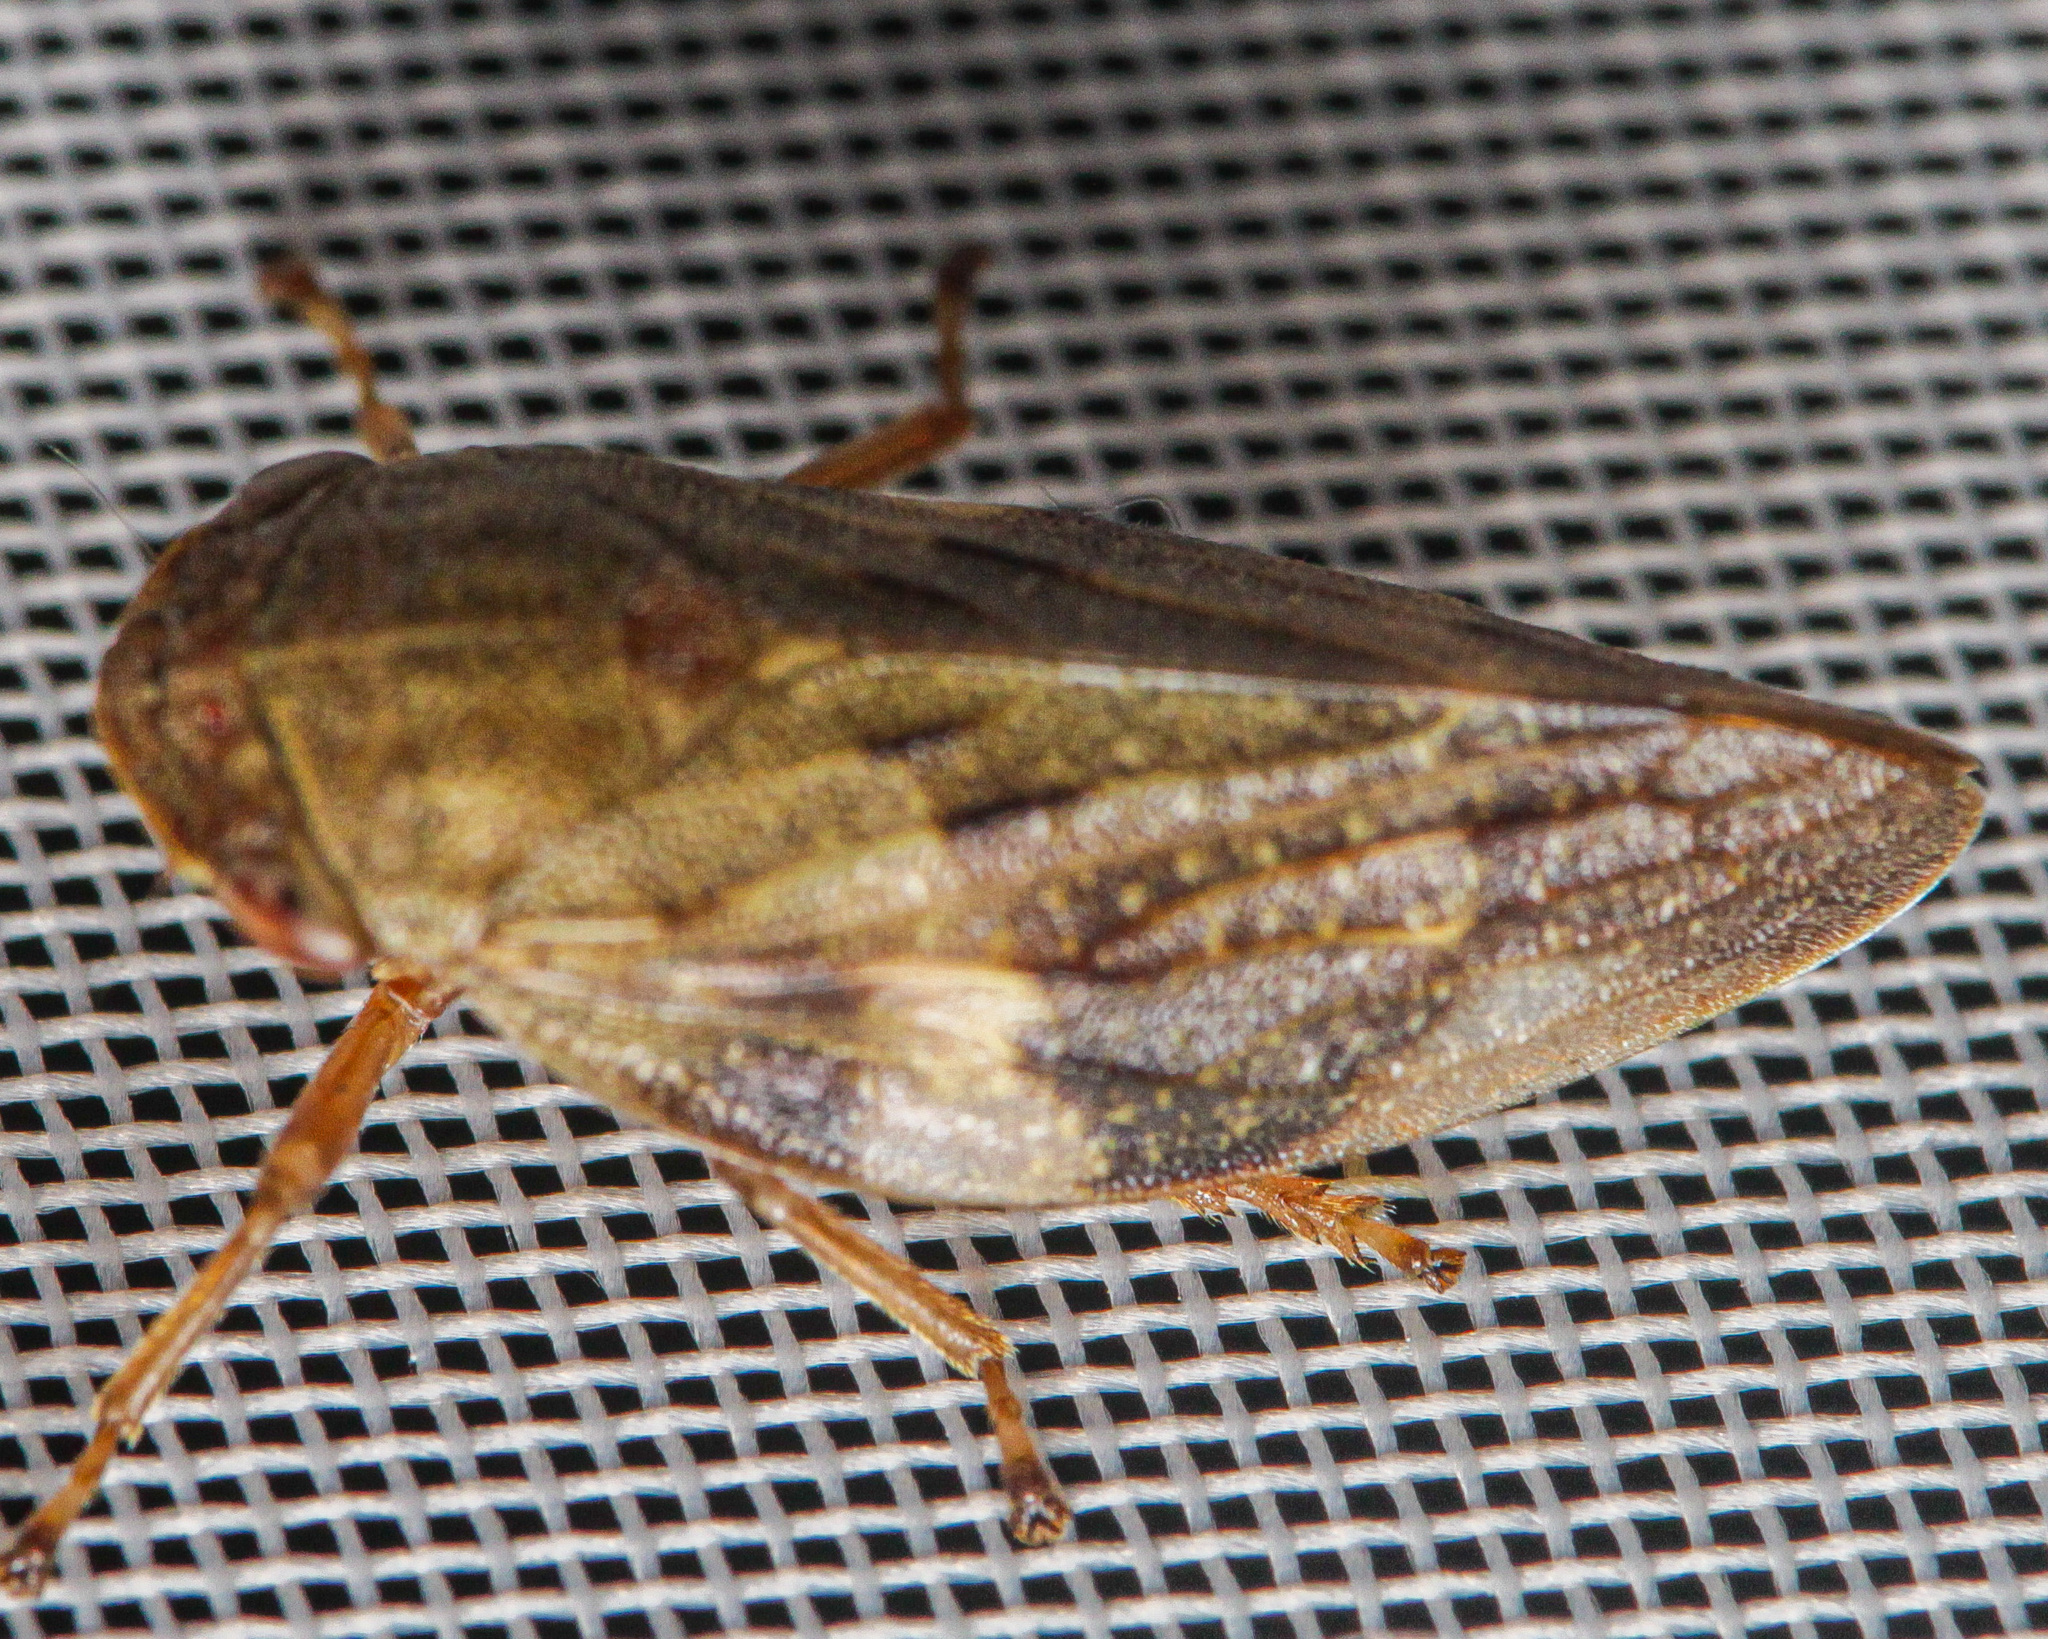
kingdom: Animalia
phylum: Arthropoda
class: Insecta
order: Hemiptera
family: Aphrophoridae
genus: Aphrophora
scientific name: Aphrophora alni
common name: European alder spittlebug
